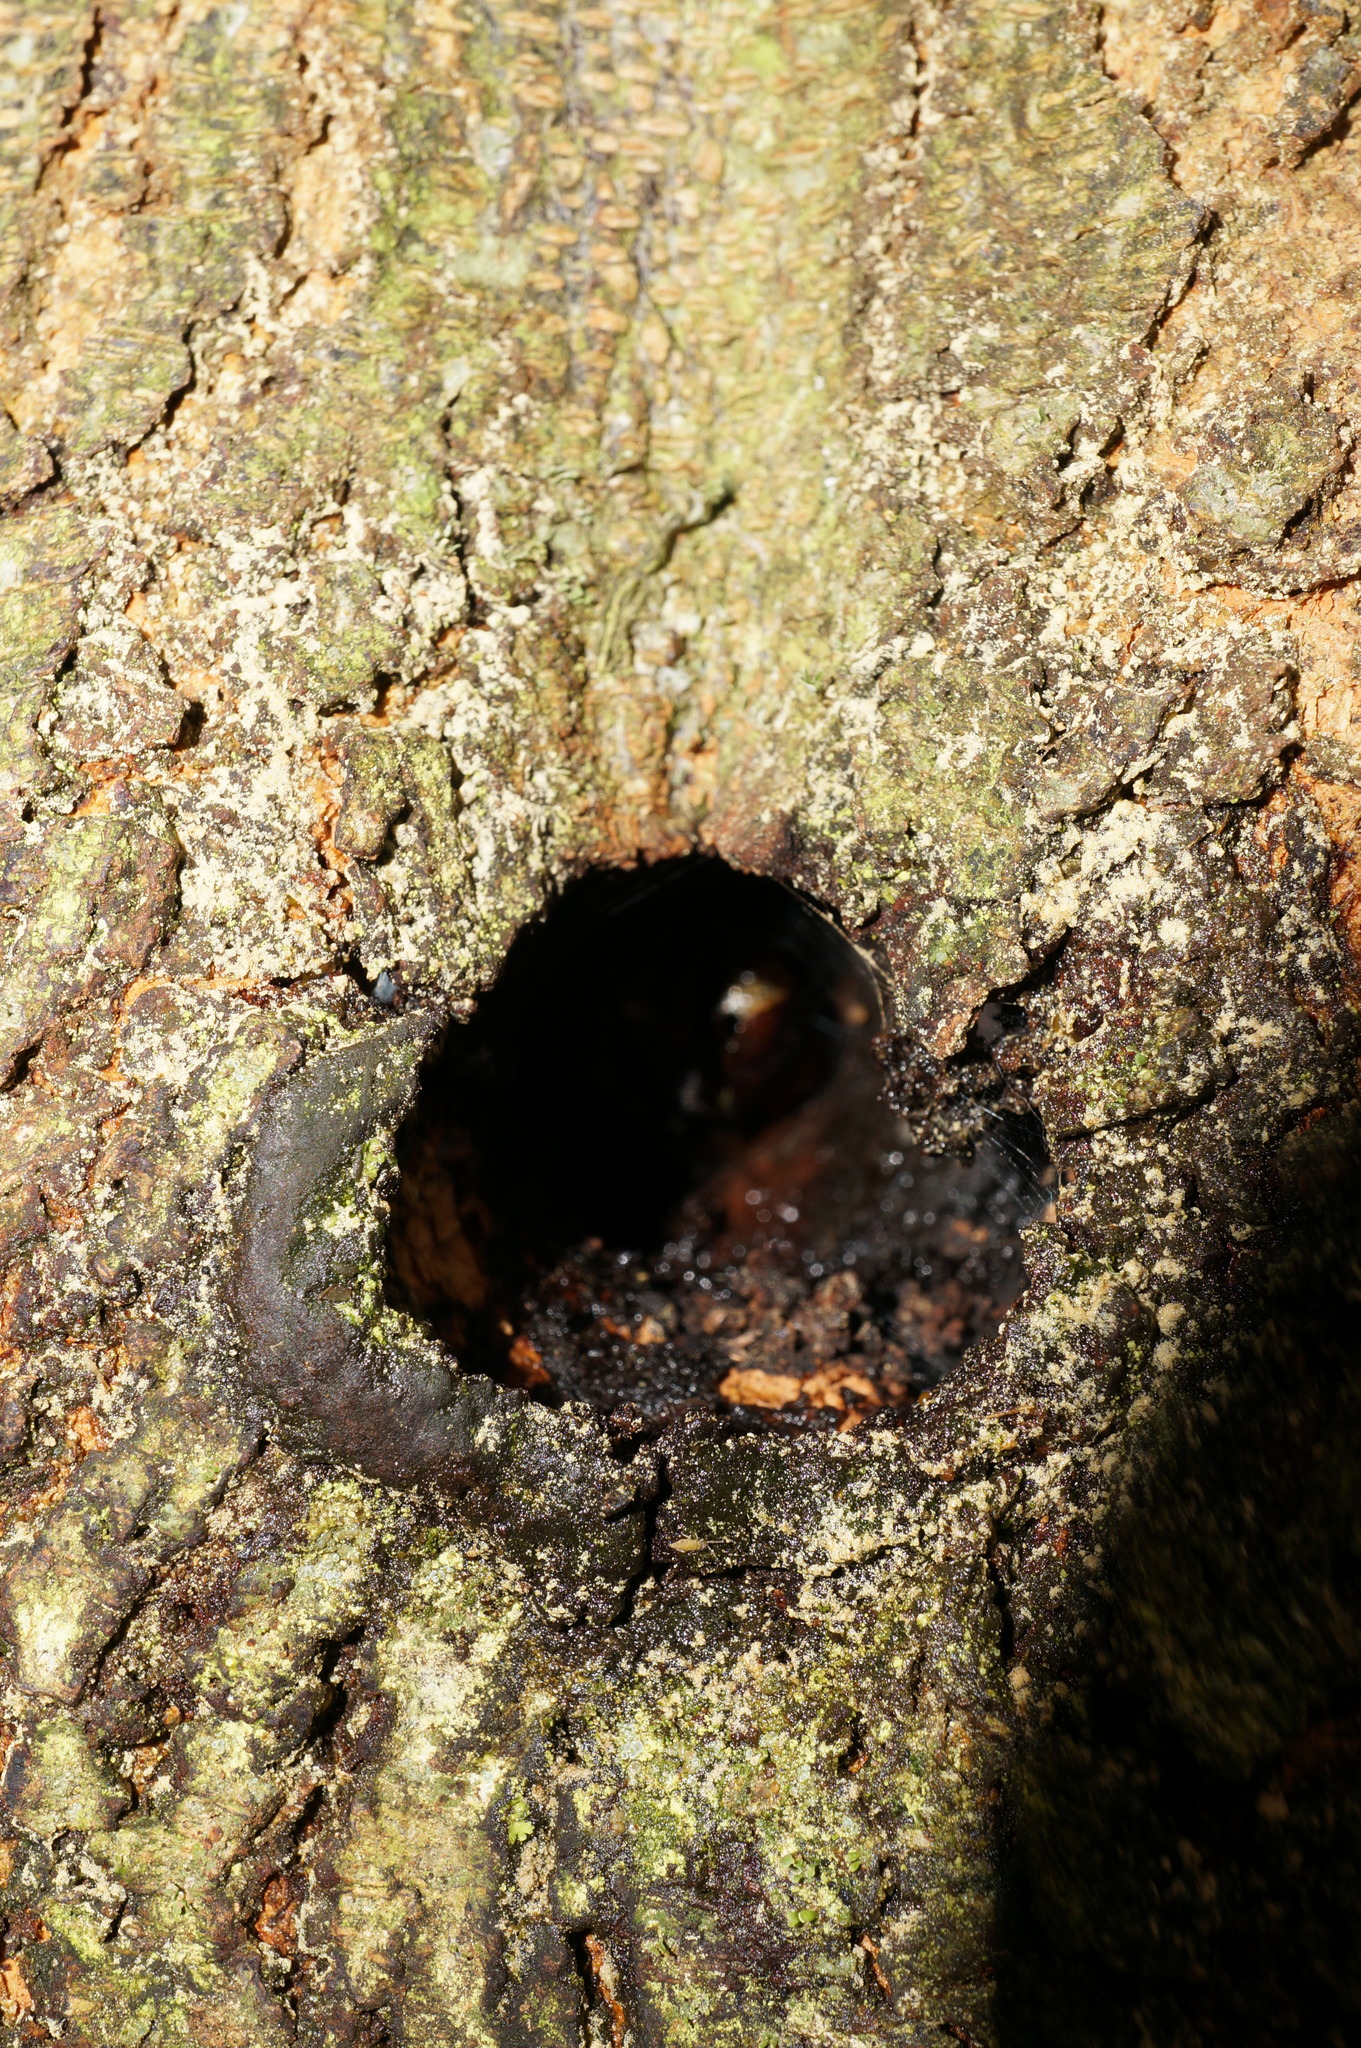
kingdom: Animalia
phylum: Arthropoda
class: Insecta
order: Lepidoptera
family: Hepialidae
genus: Aenetus
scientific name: Aenetus virescens
